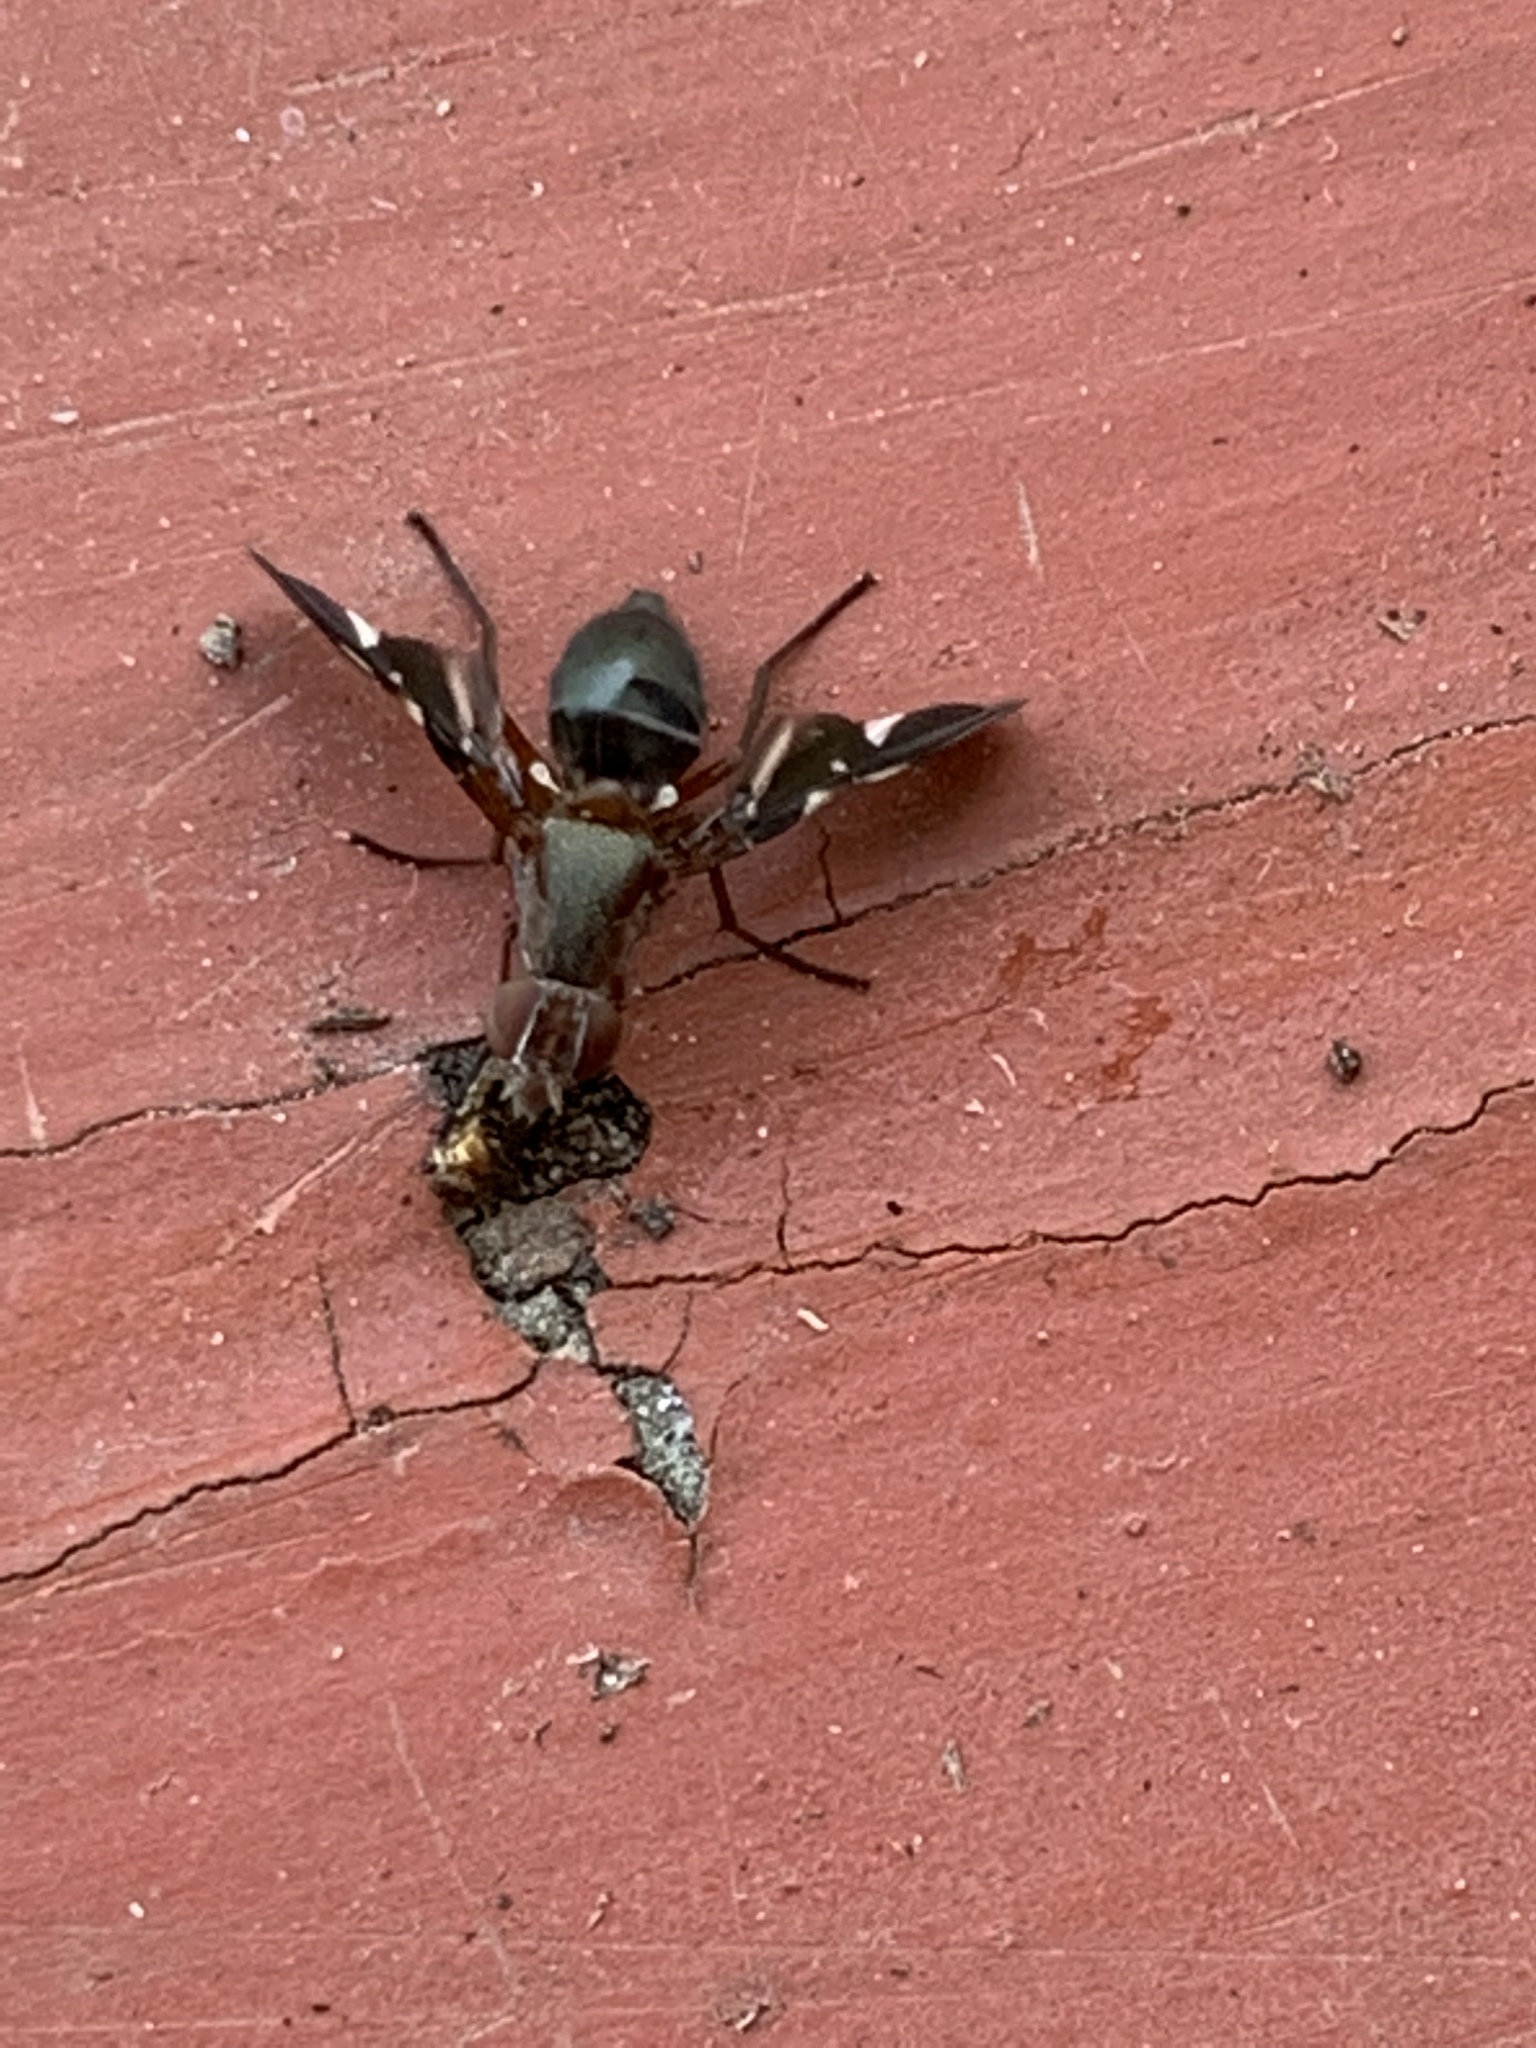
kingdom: Animalia
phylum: Arthropoda
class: Insecta
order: Diptera
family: Ulidiidae
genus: Delphinia
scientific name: Delphinia picta
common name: Common picture-winged fly
